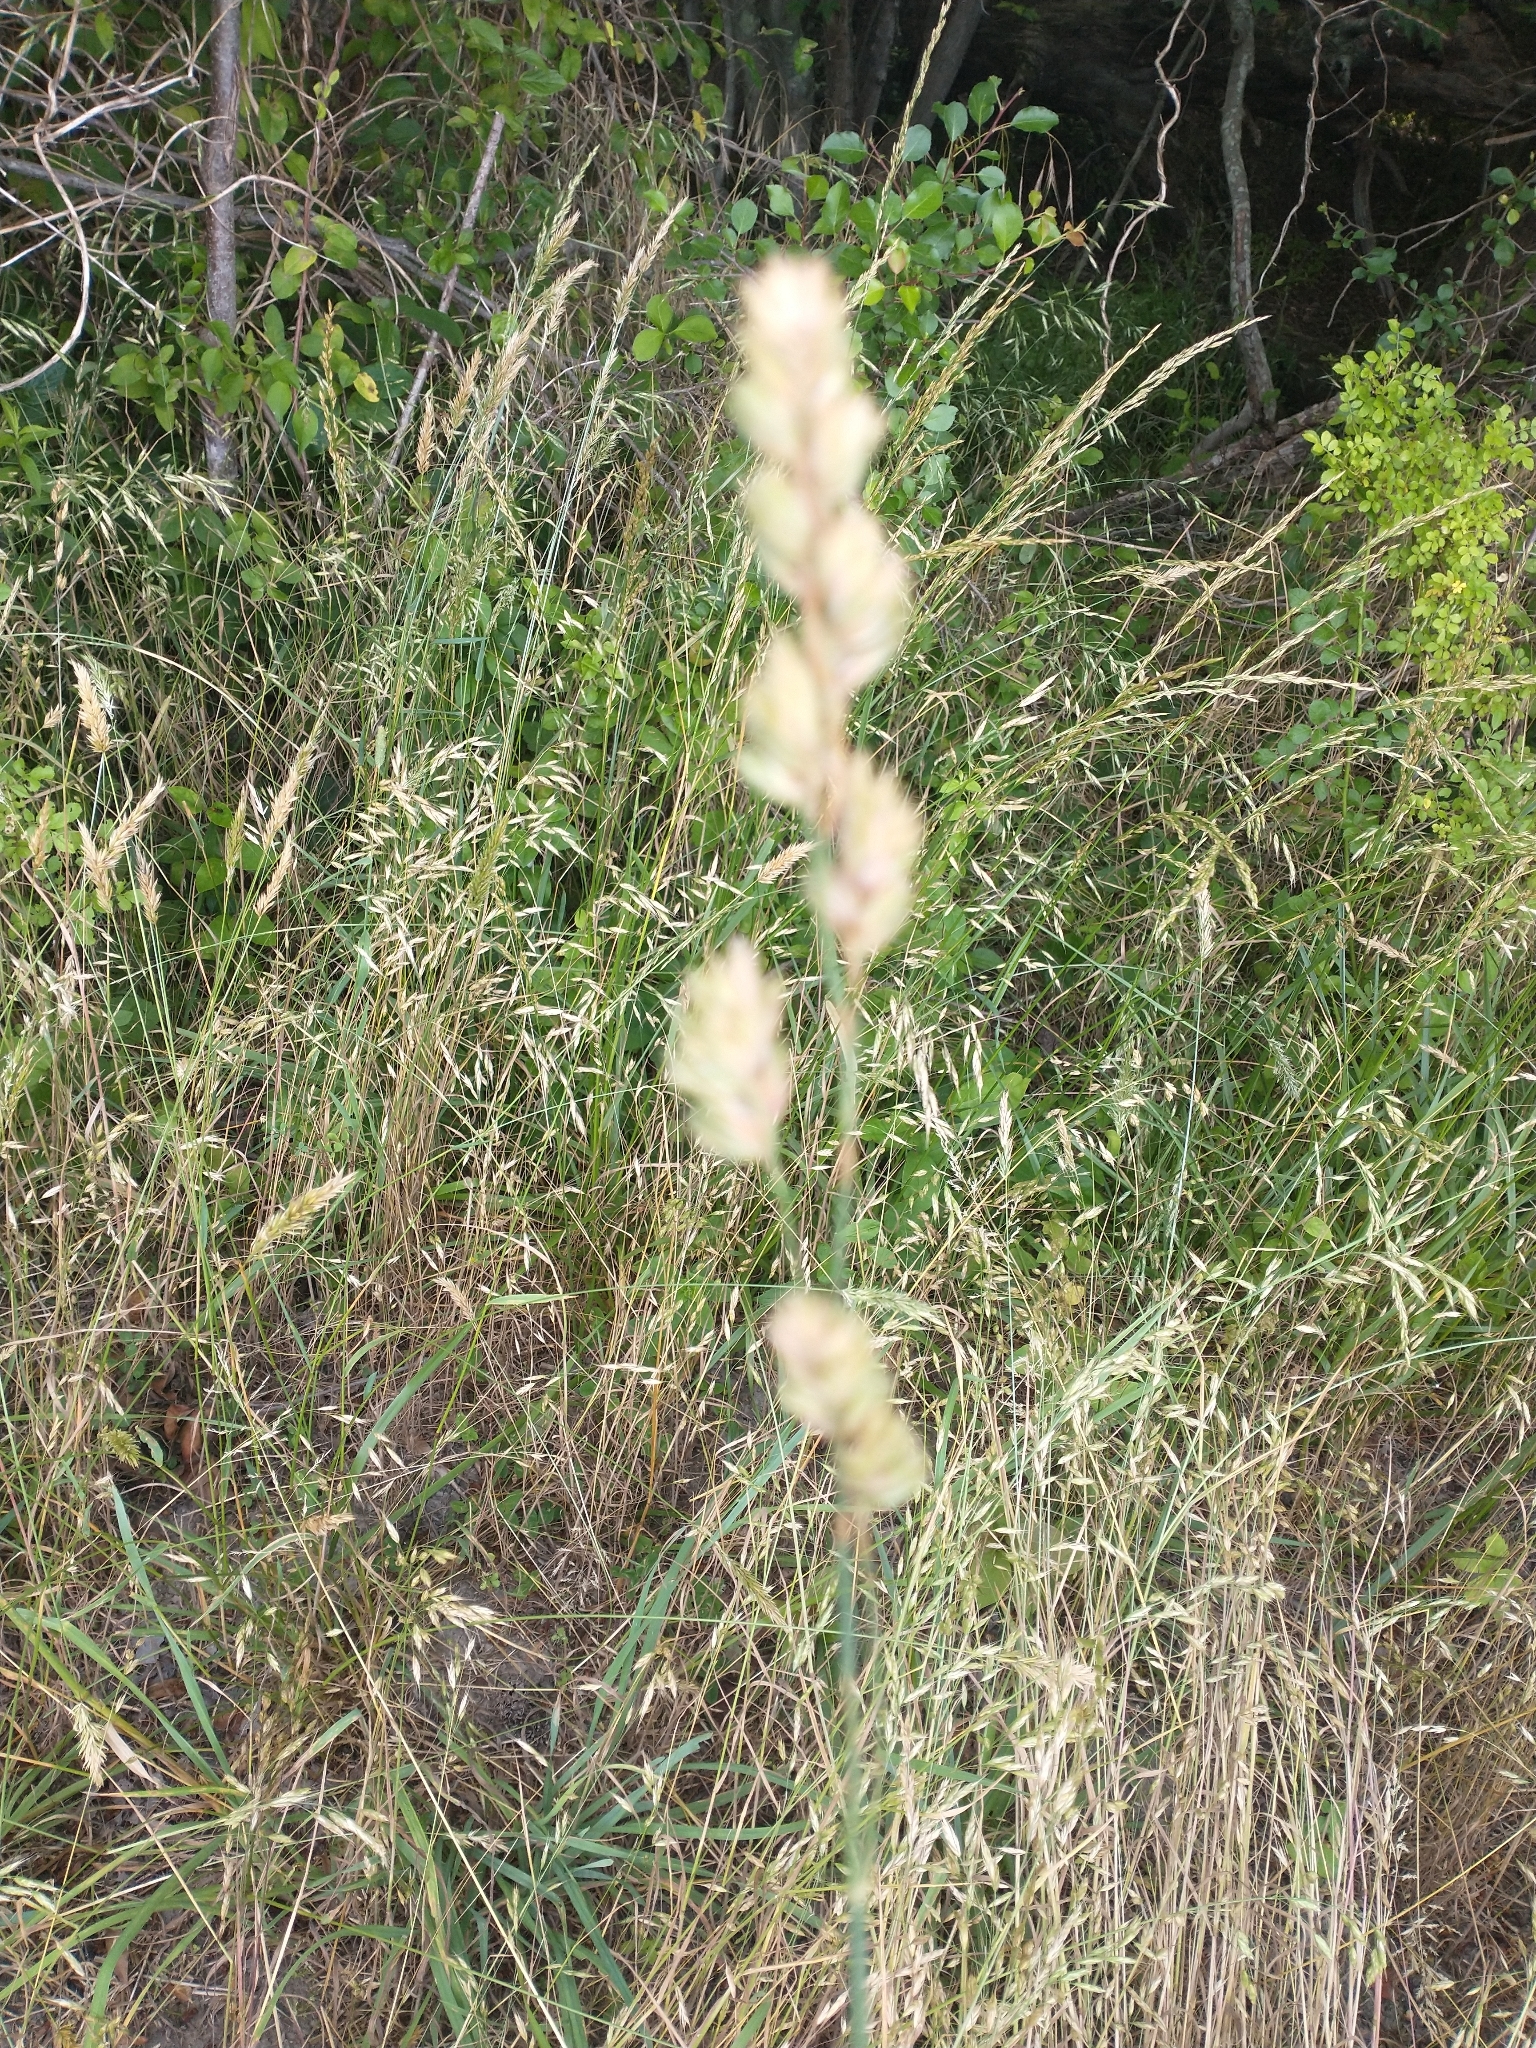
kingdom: Plantae
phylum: Tracheophyta
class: Liliopsida
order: Poales
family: Poaceae
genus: Dactylis
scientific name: Dactylis glomerata
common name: Orchardgrass
